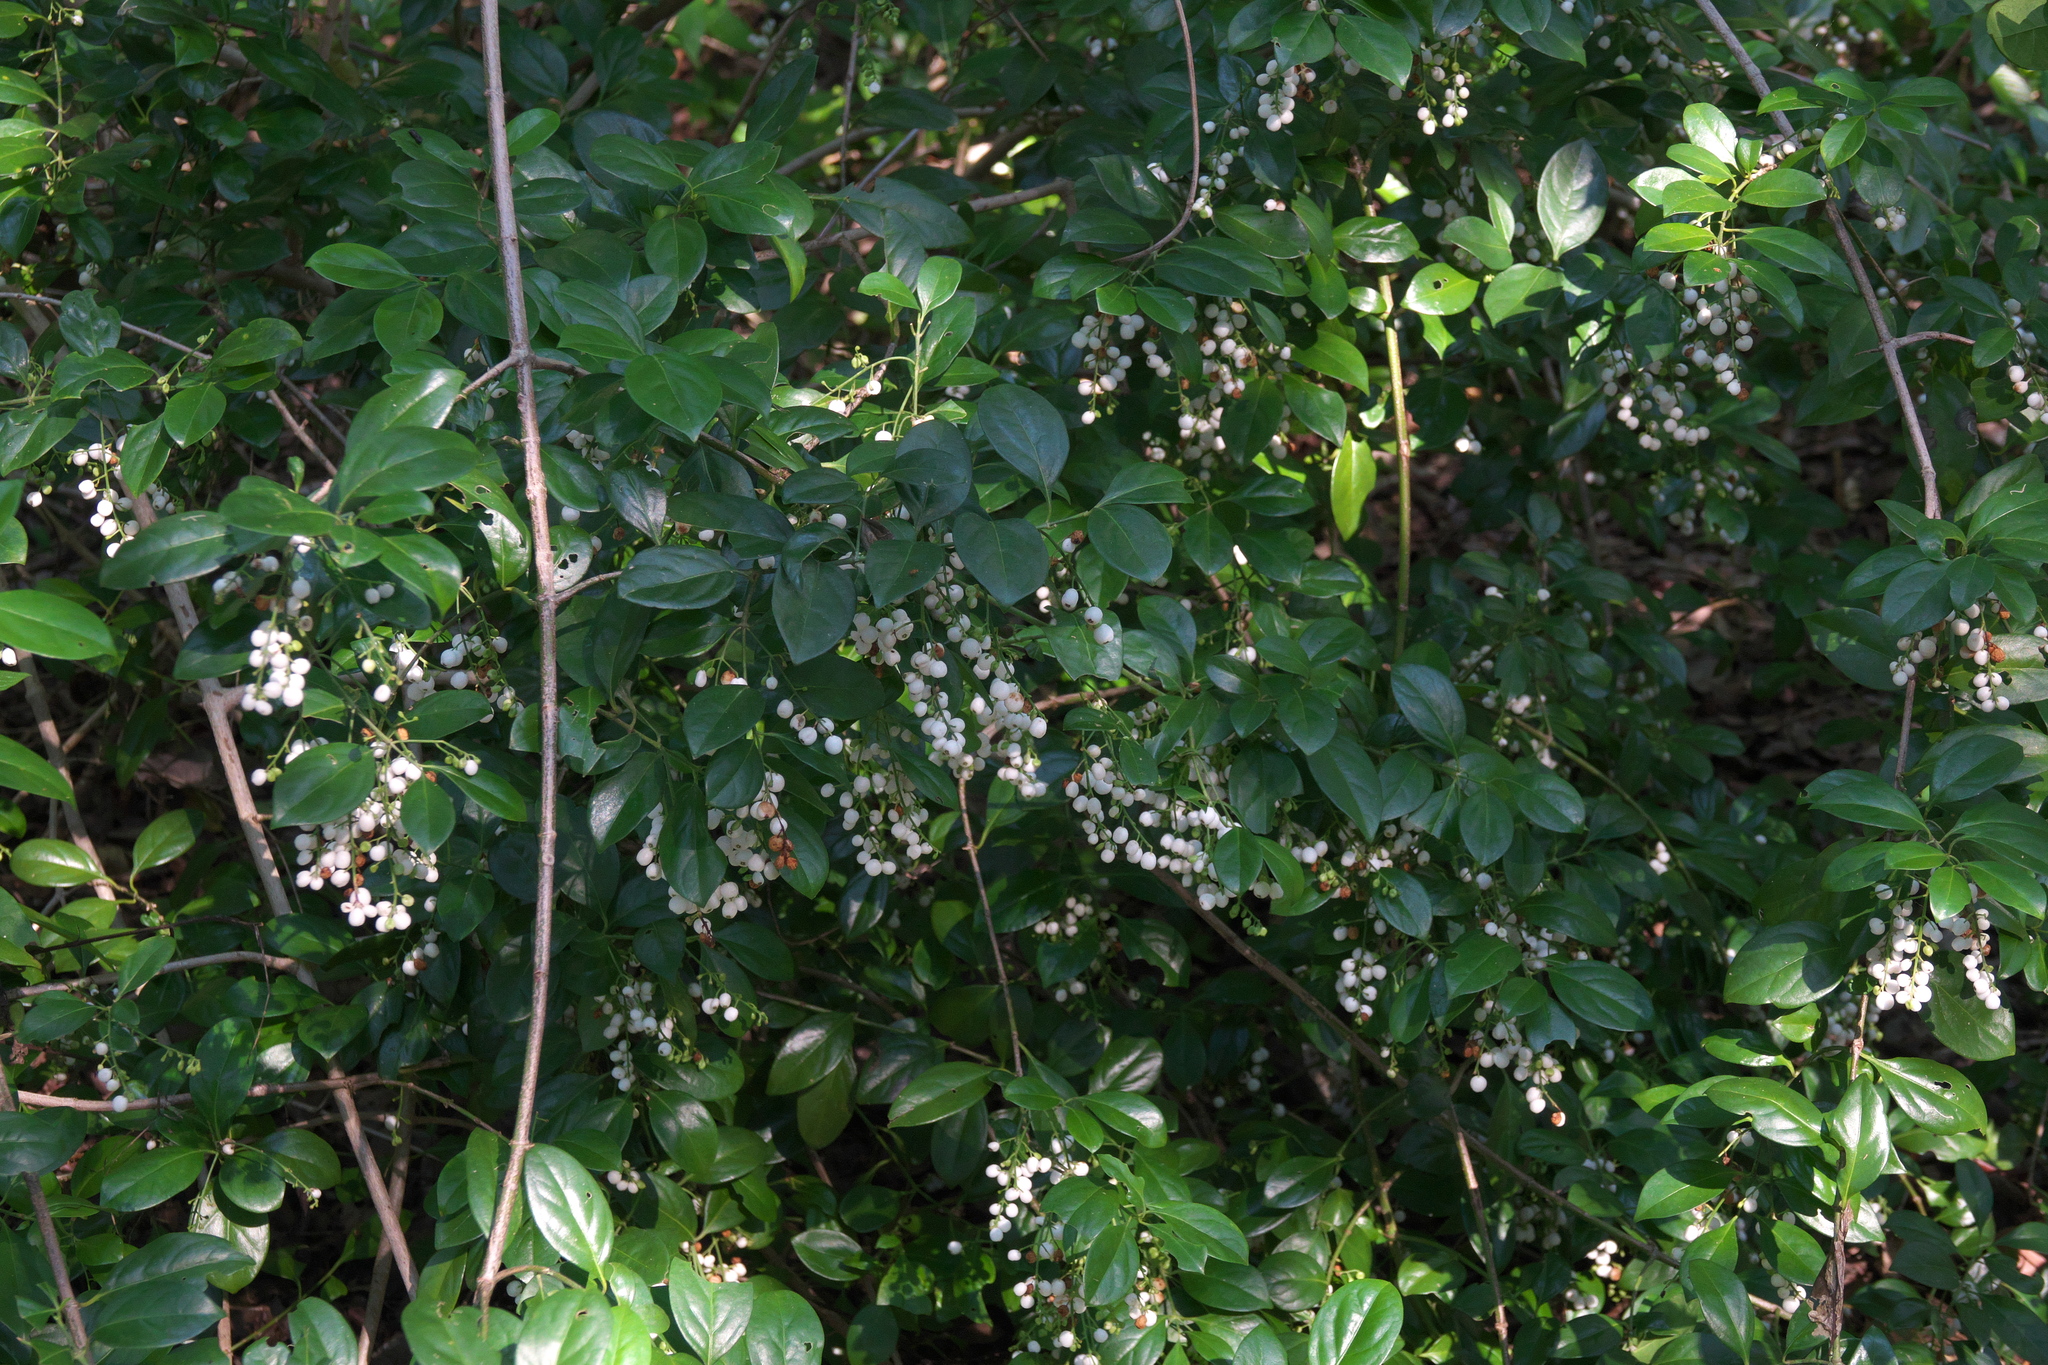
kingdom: Plantae
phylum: Tracheophyta
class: Magnoliopsida
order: Gentianales
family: Rubiaceae
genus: Chiococca
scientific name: Chiococca alba
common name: Snowberry
